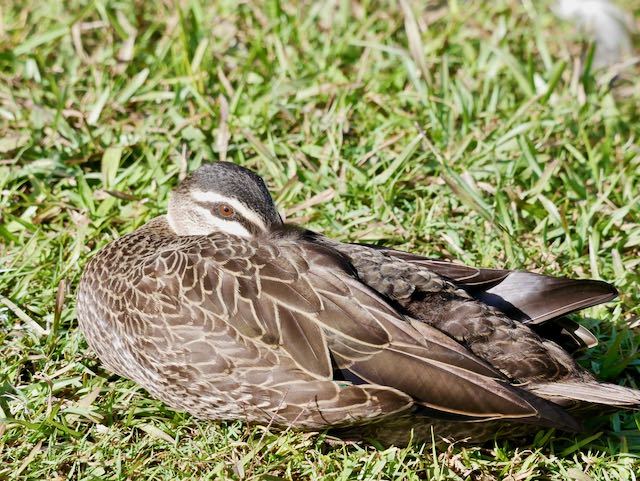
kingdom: Animalia
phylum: Chordata
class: Aves
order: Anseriformes
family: Anatidae
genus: Anas
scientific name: Anas superciliosa
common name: Pacific black duck
